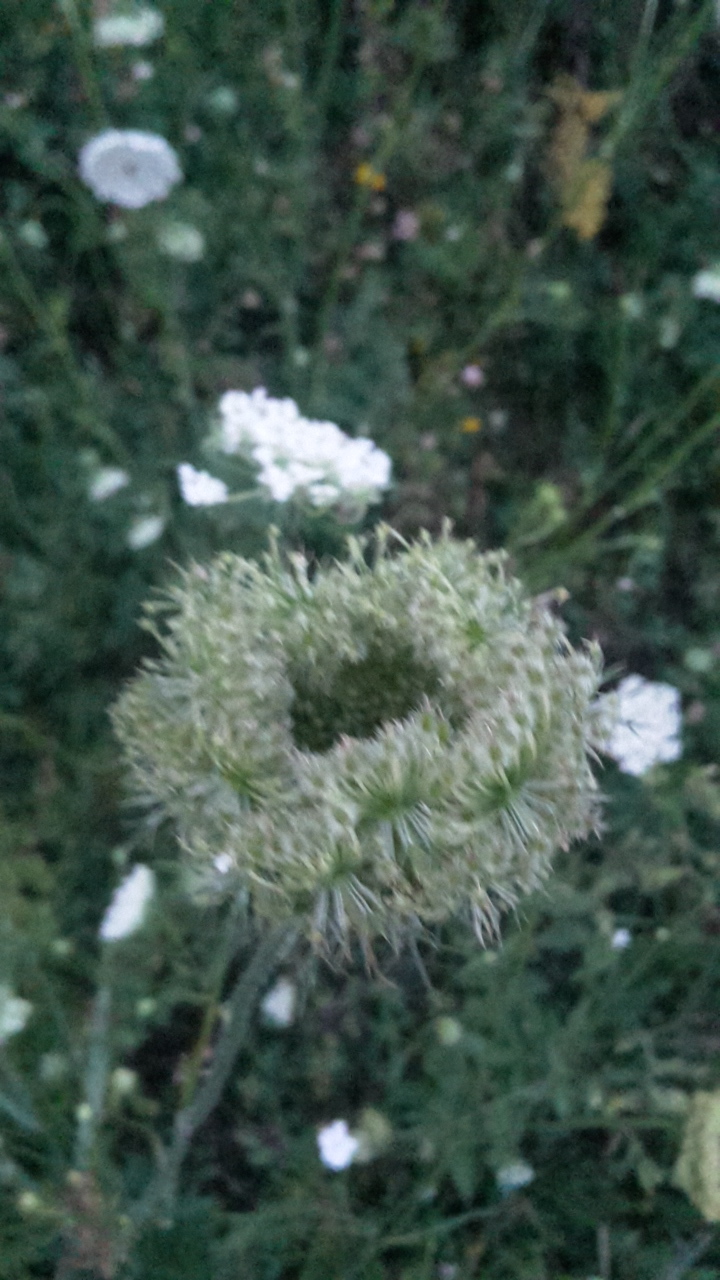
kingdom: Plantae
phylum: Tracheophyta
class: Magnoliopsida
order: Apiales
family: Apiaceae
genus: Daucus
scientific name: Daucus carota
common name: Wild carrot
